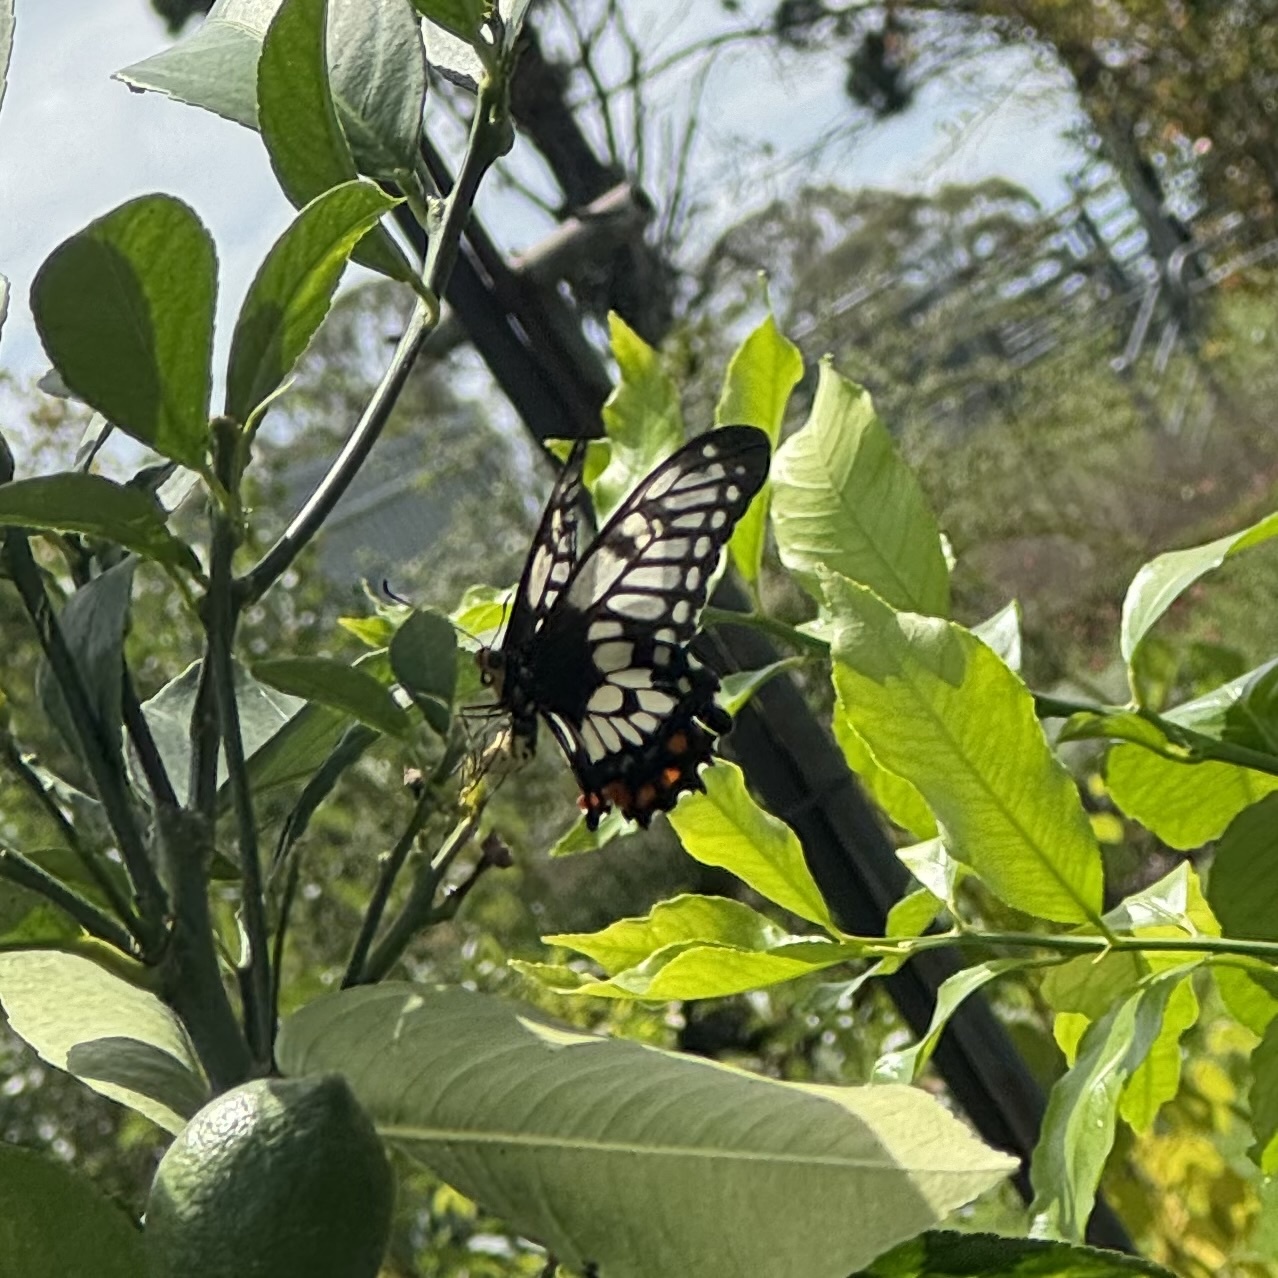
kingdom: Animalia
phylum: Arthropoda
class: Insecta
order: Lepidoptera
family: Papilionidae
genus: Papilio
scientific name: Papilio anactus
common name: Dingy swallowtail
